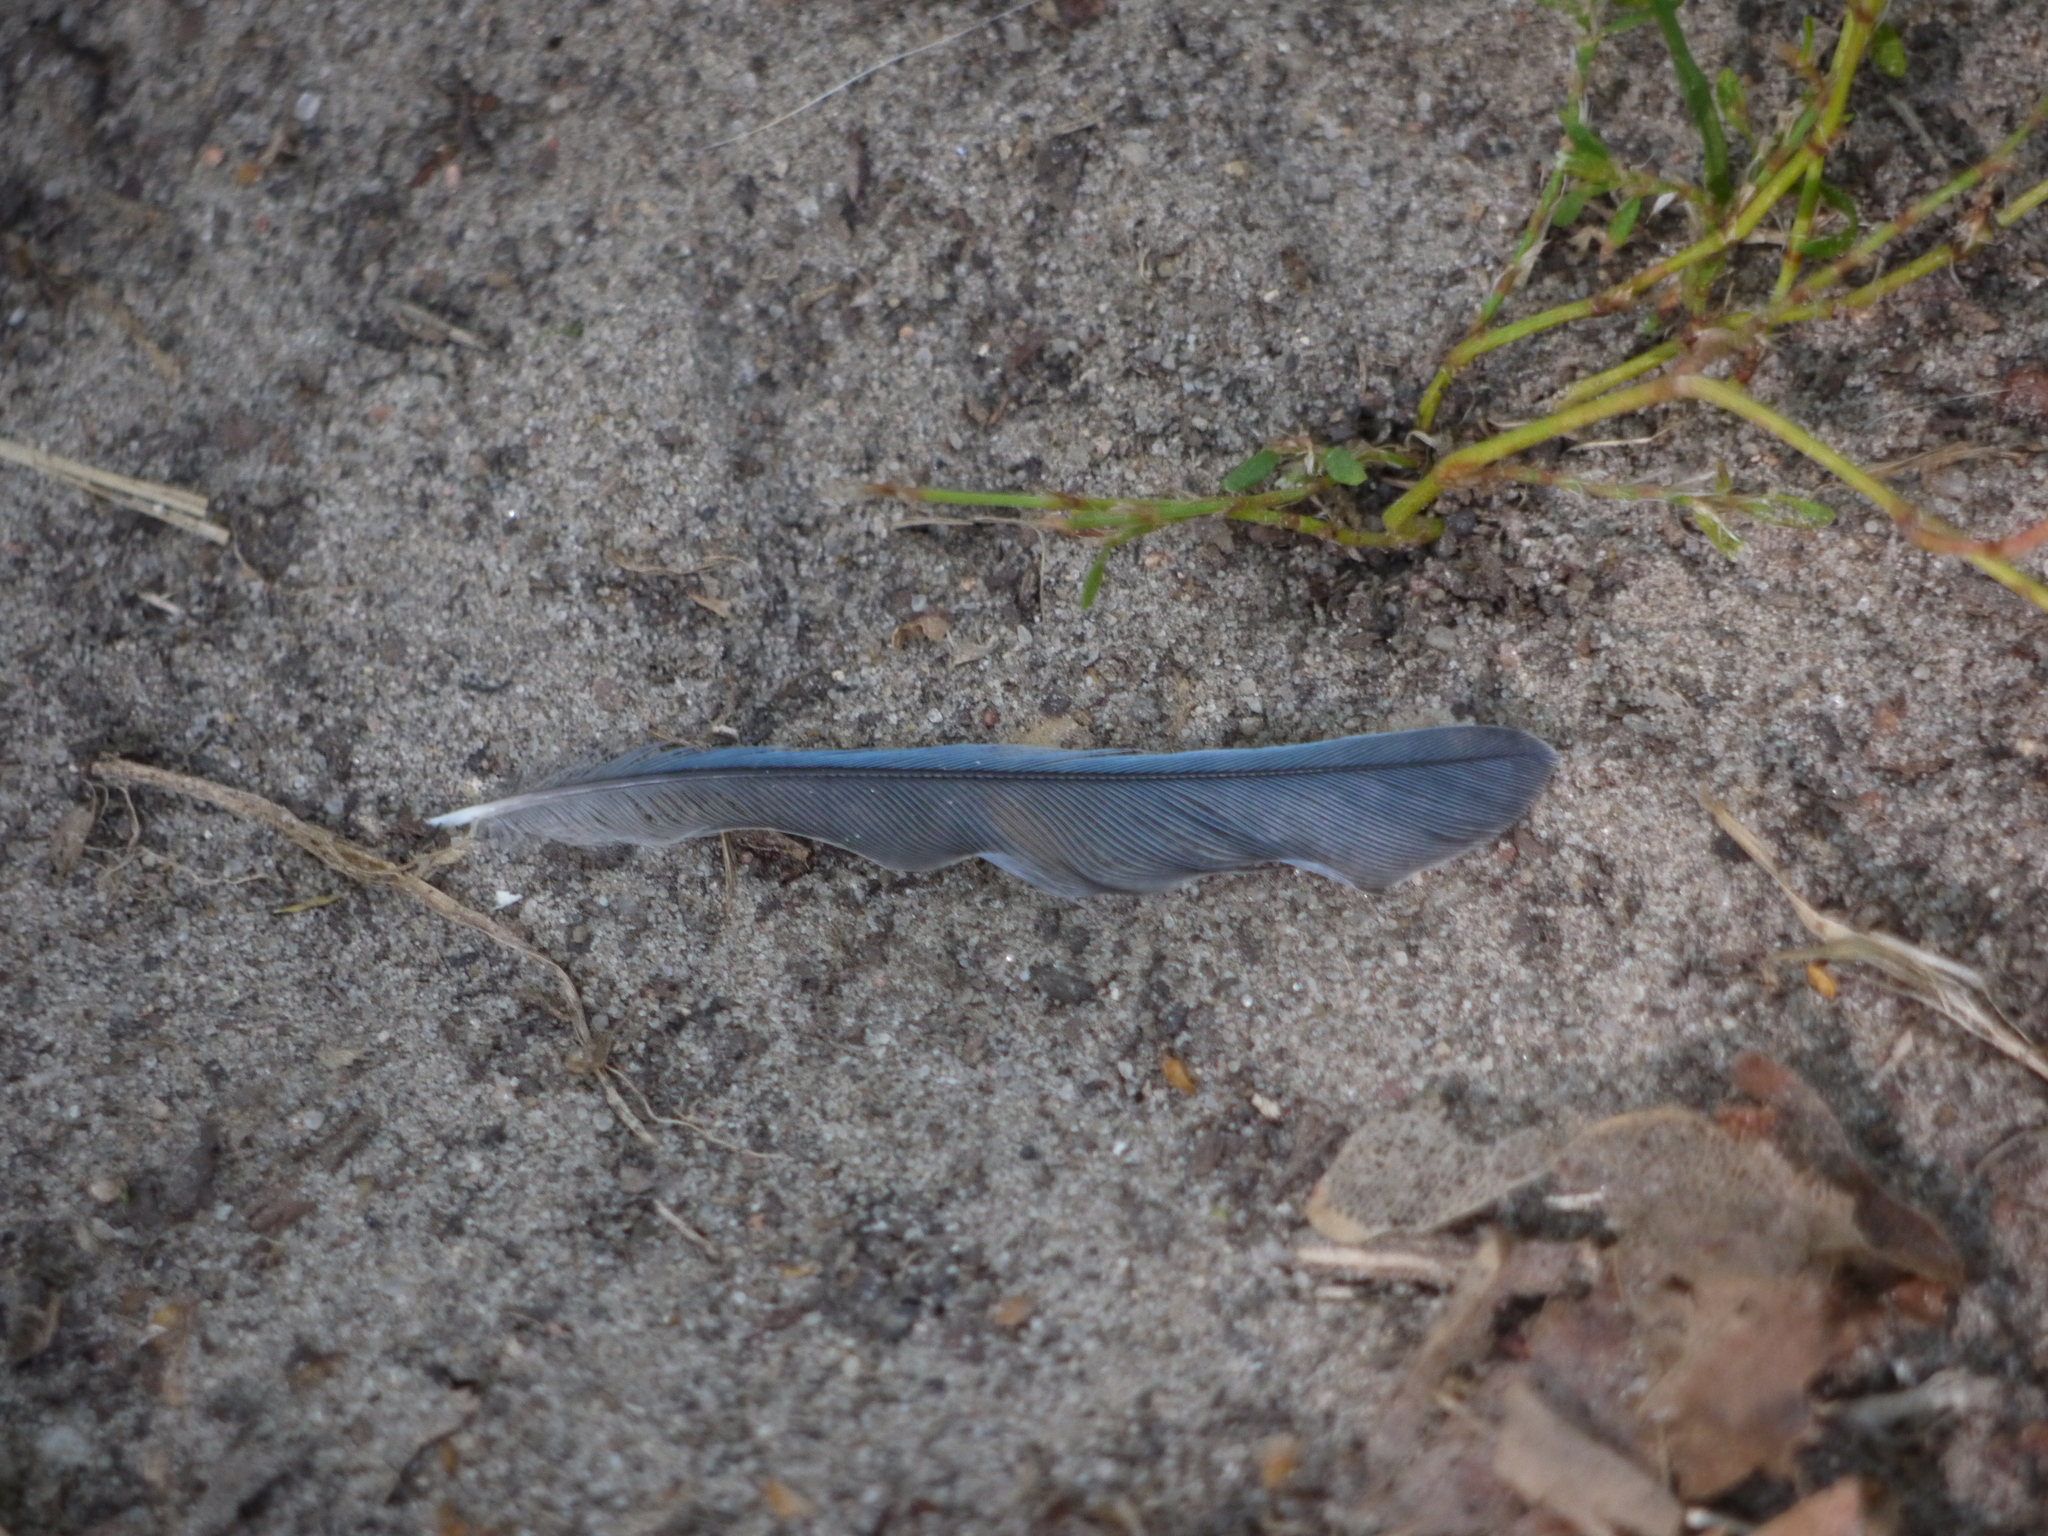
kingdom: Animalia
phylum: Chordata
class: Aves
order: Passeriformes
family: Paridae
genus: Cyanistes
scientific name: Cyanistes caeruleus
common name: Eurasian blue tit
